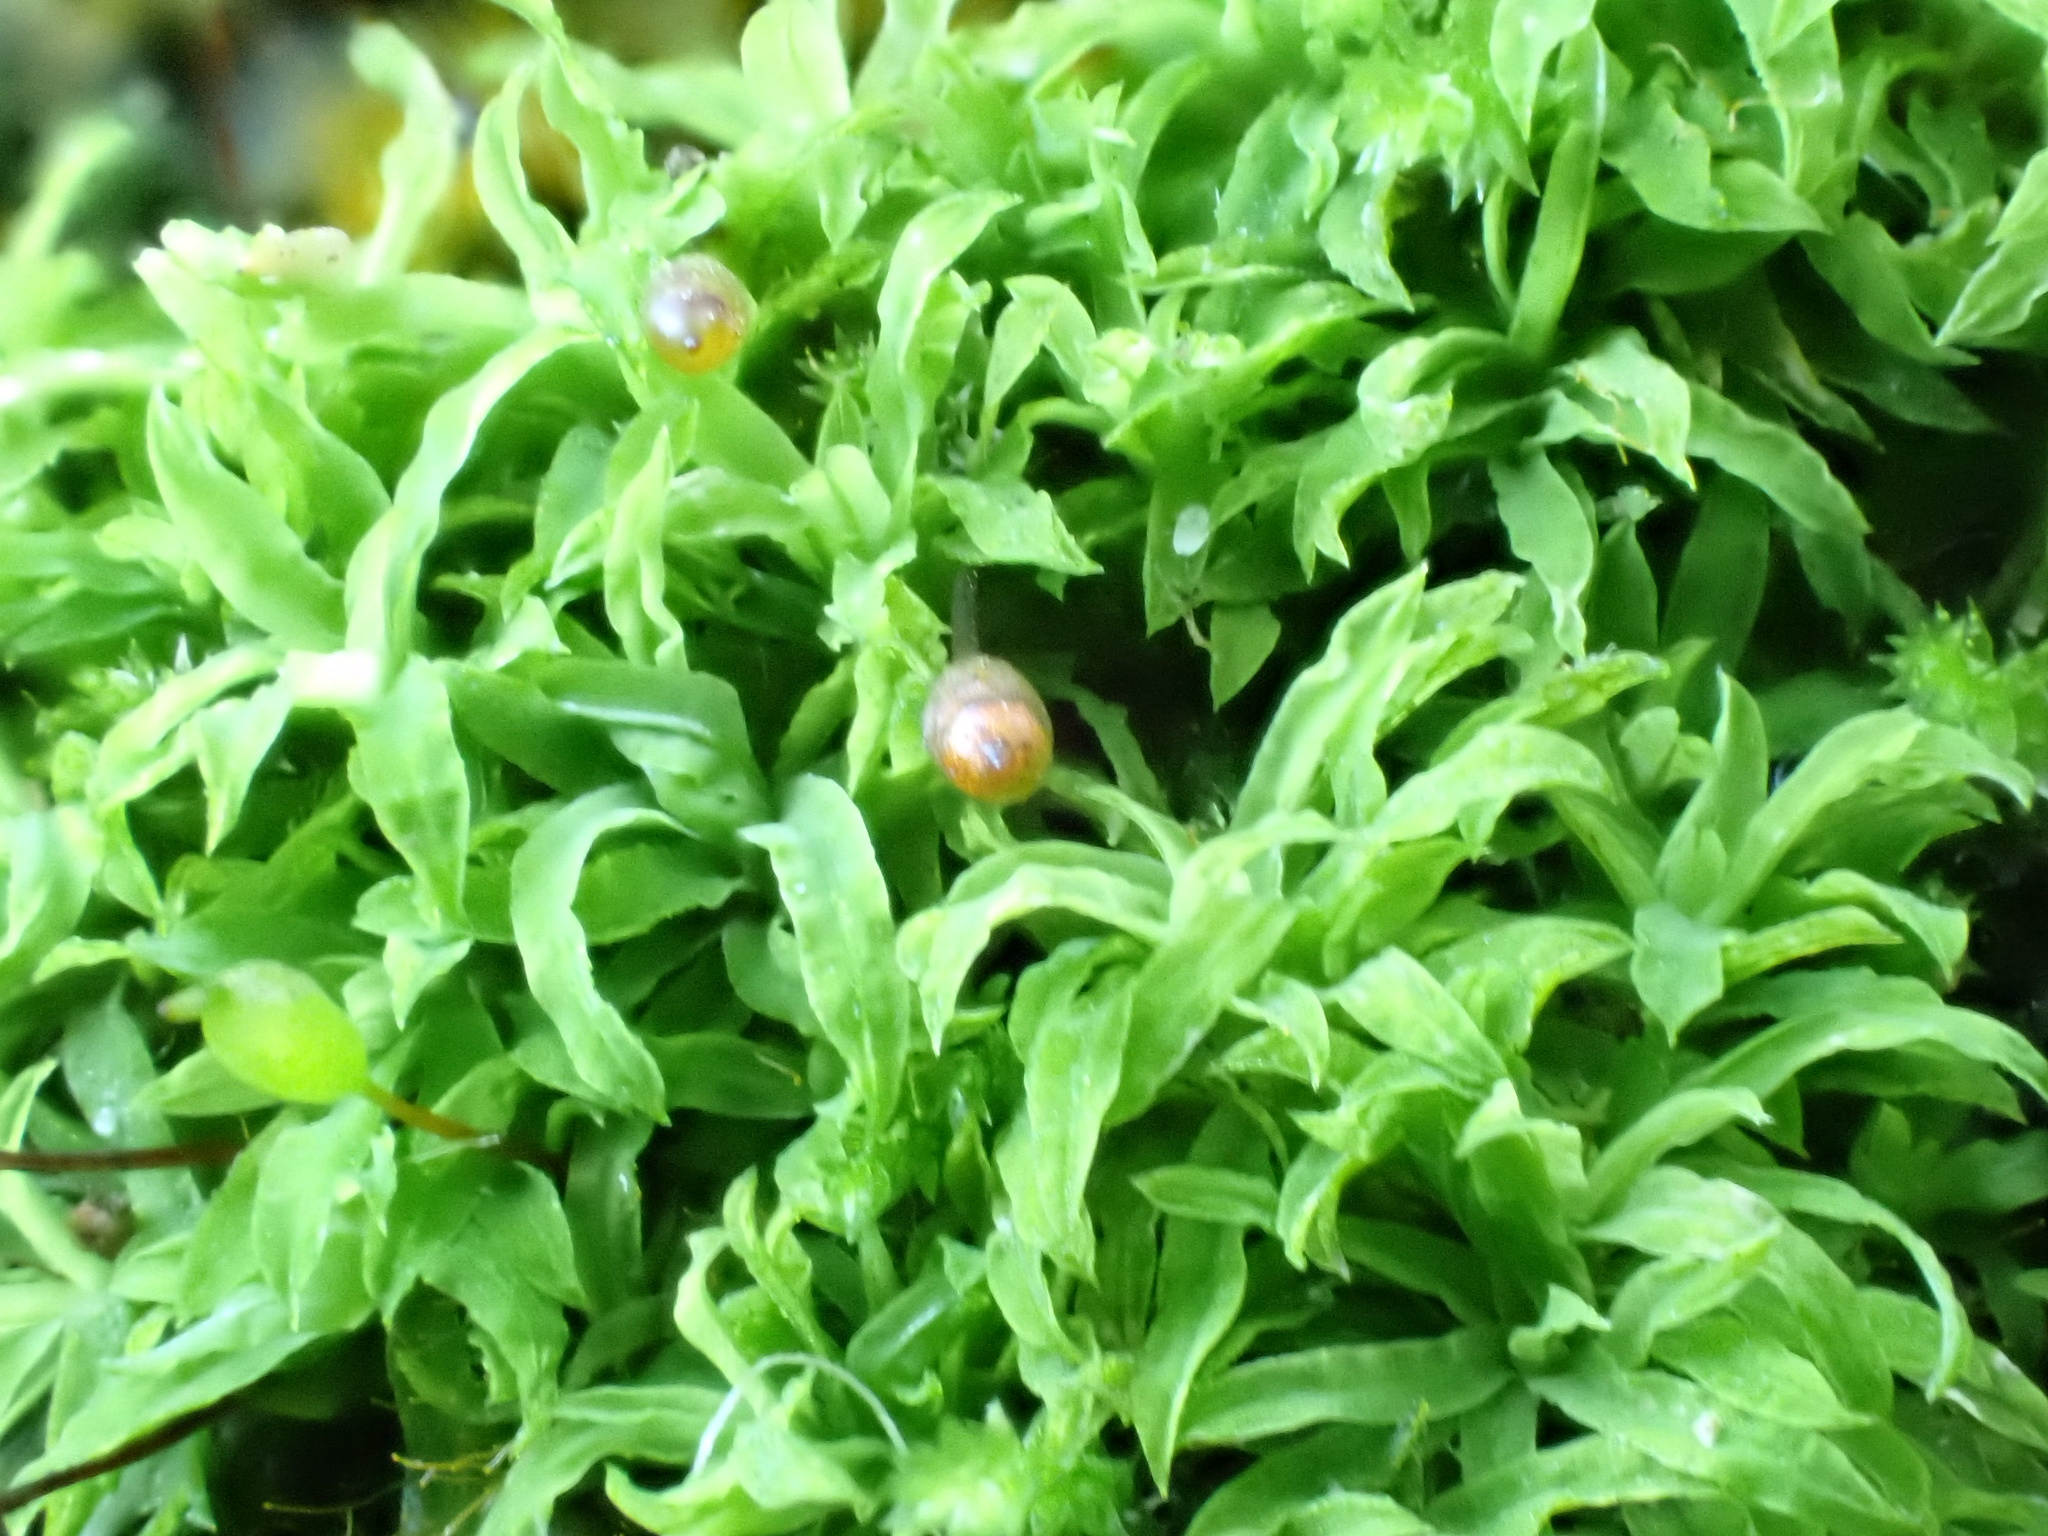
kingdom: Plantae
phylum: Bryophyta
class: Bryopsida
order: Pottiales
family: Pottiaceae
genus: Tortella
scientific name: Tortella humilis
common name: Small twisted moss
